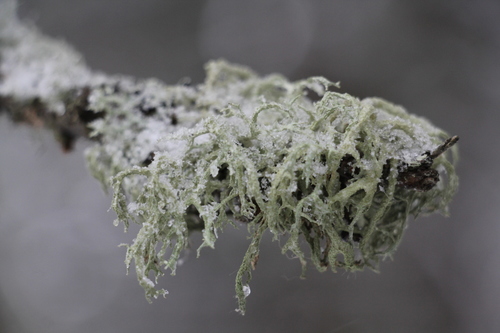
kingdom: Fungi
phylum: Ascomycota
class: Lecanoromycetes
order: Lecanorales
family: Parmeliaceae
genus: Evernia
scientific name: Evernia mesomorpha
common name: Boreal oak moss lichen
